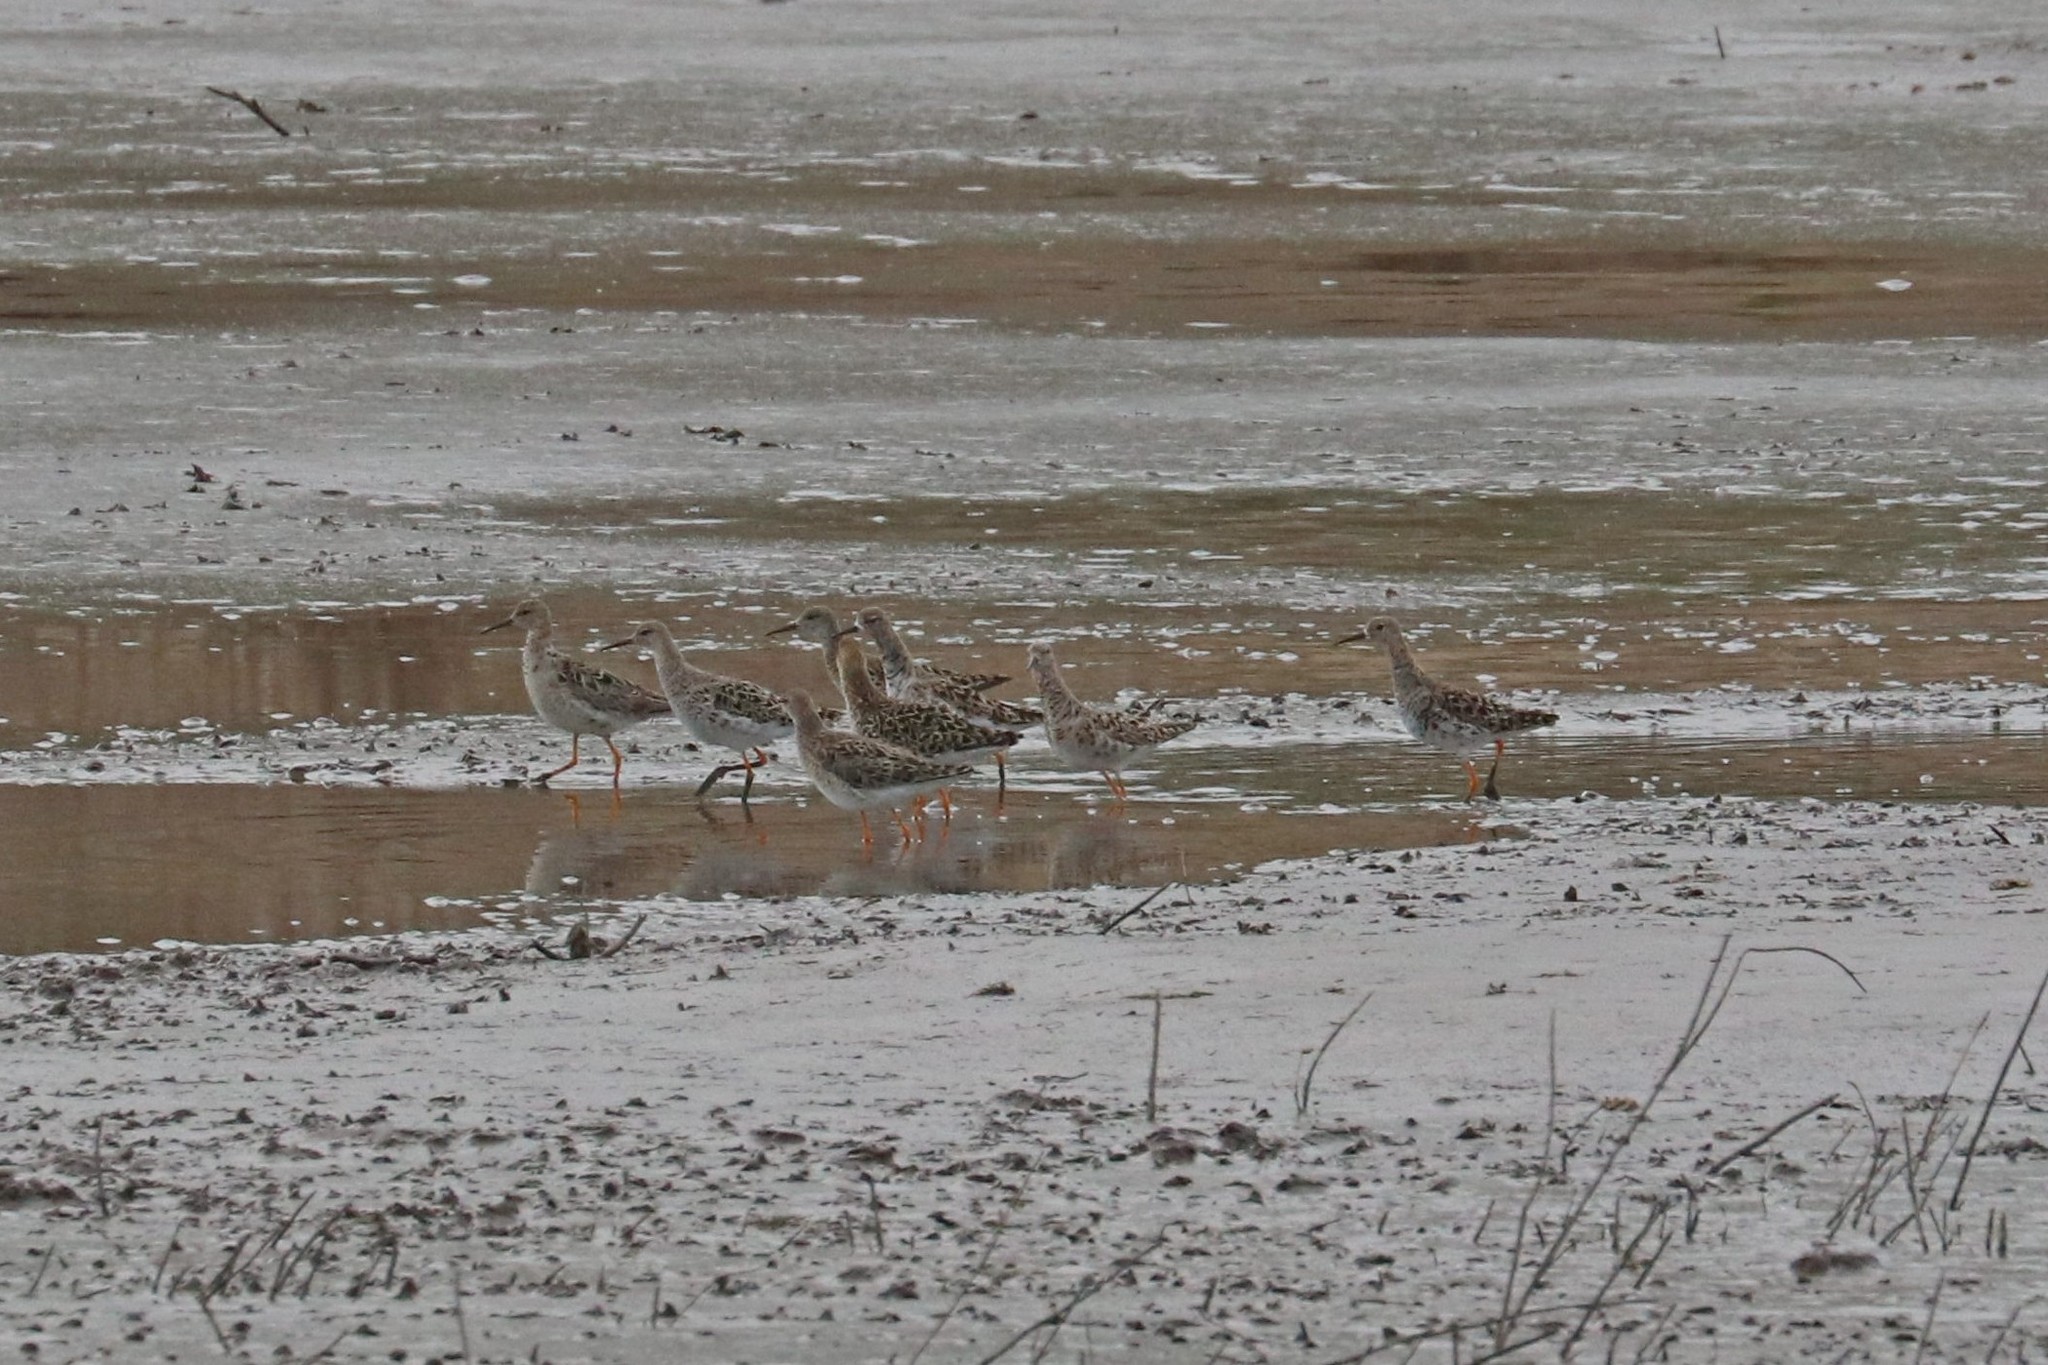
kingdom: Animalia
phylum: Chordata
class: Aves
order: Charadriiformes
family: Scolopacidae
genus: Calidris
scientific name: Calidris pugnax
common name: Ruff
